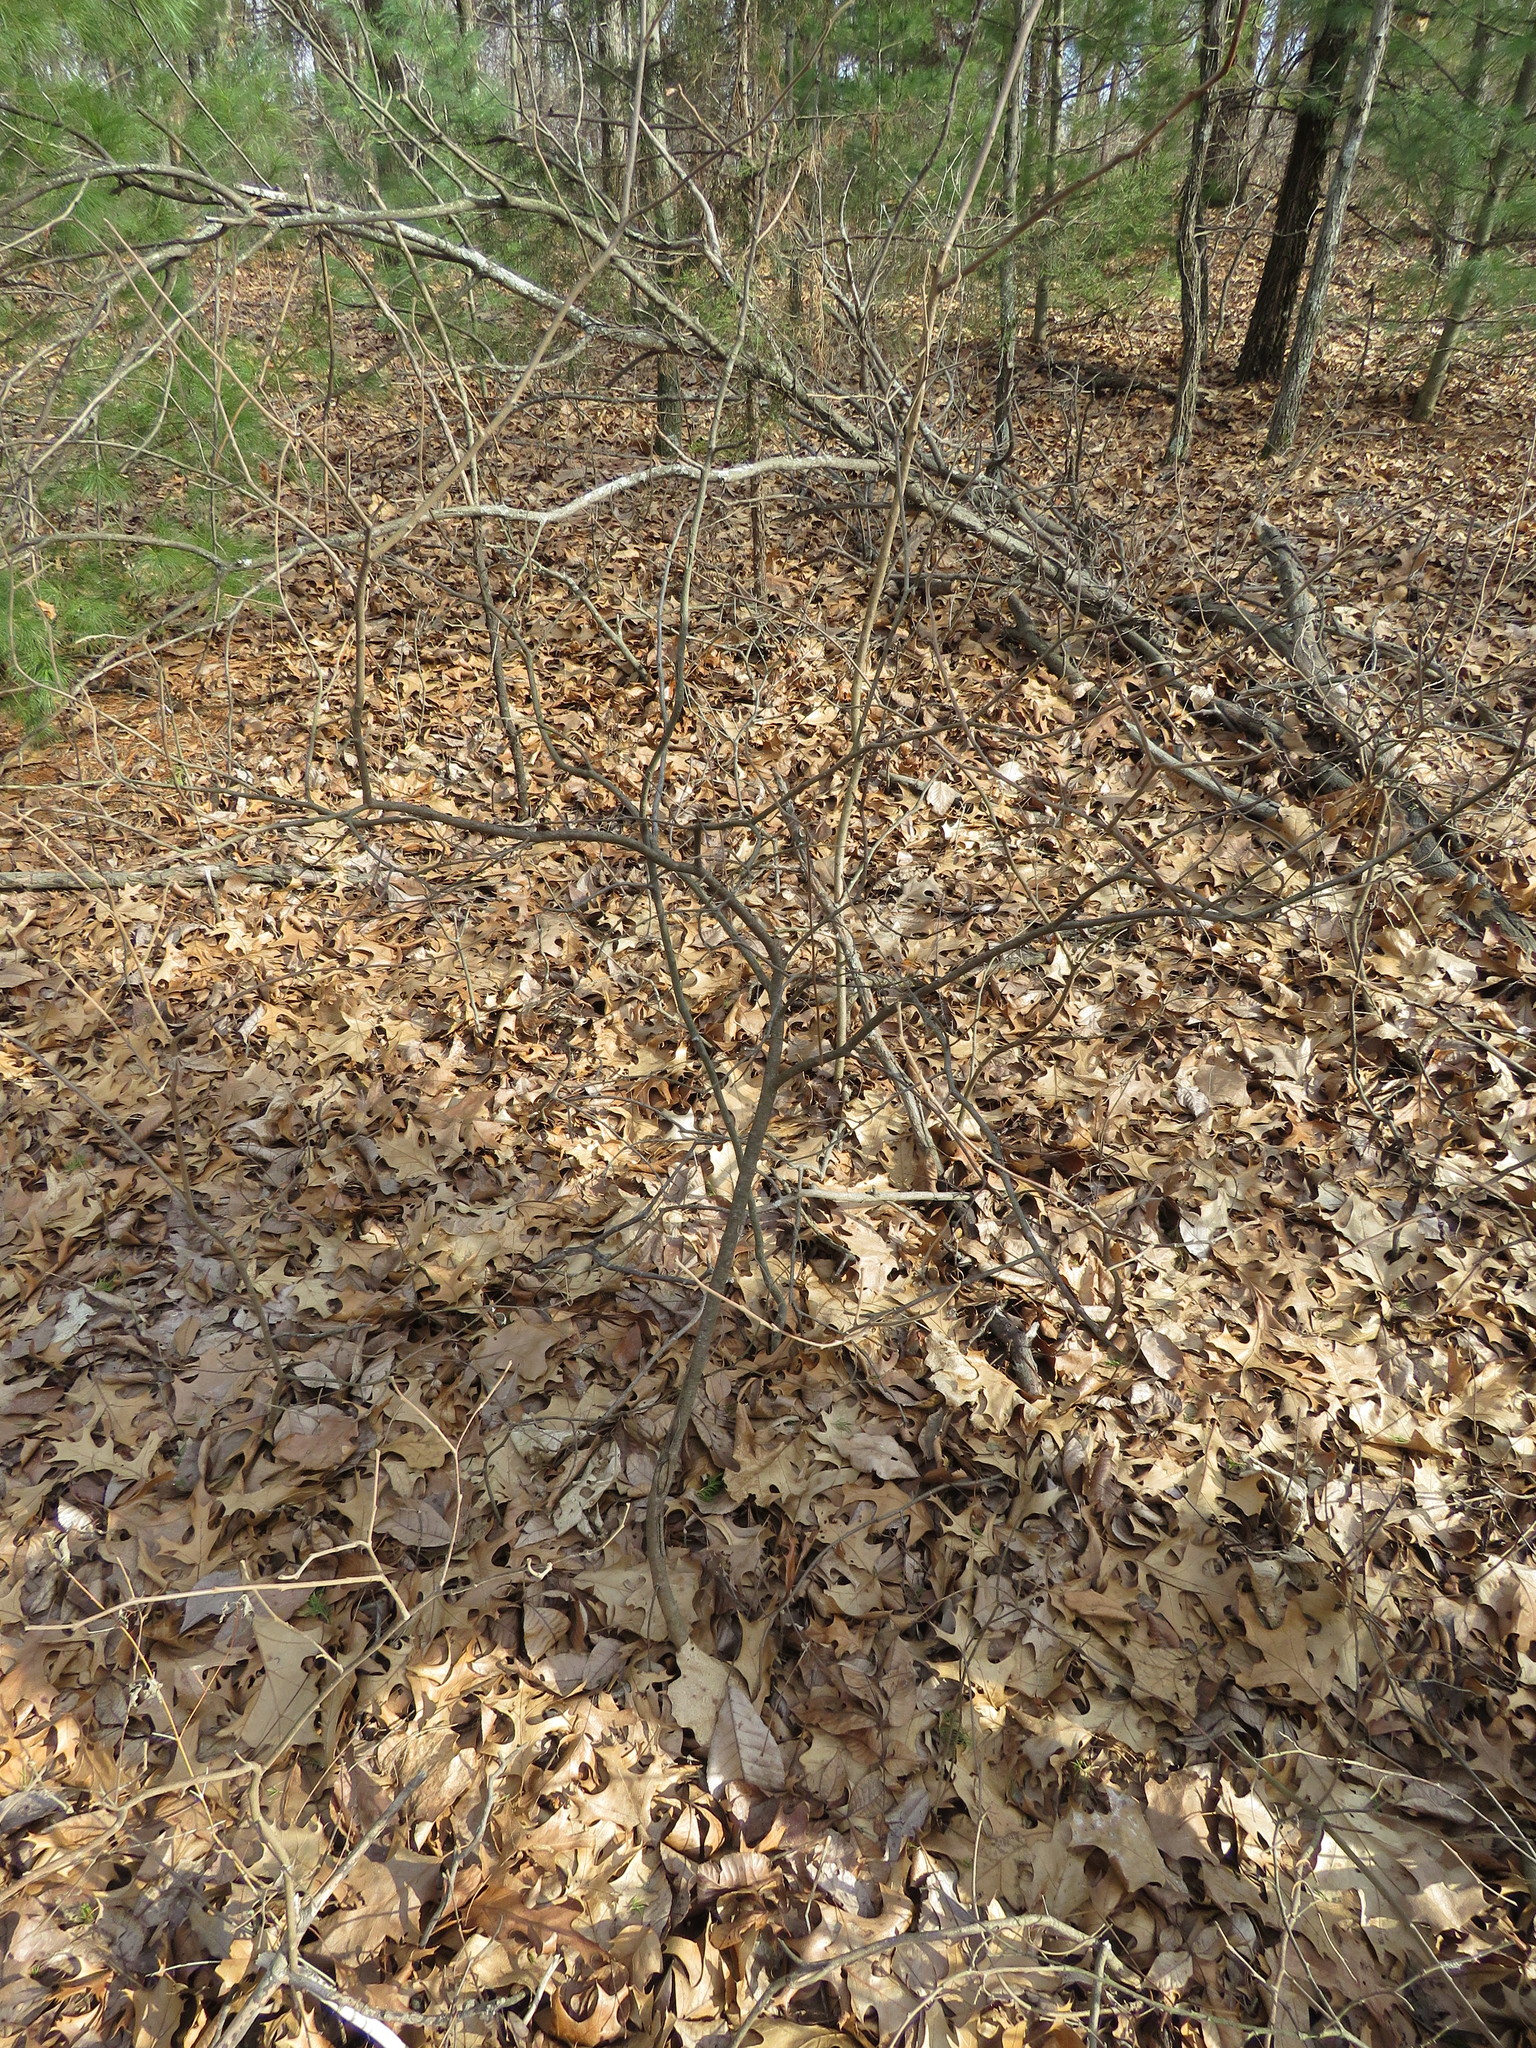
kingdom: Plantae
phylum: Tracheophyta
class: Magnoliopsida
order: Sapindales
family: Anacardiaceae
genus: Rhus
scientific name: Rhus aromatica
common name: Aromatic sumac
